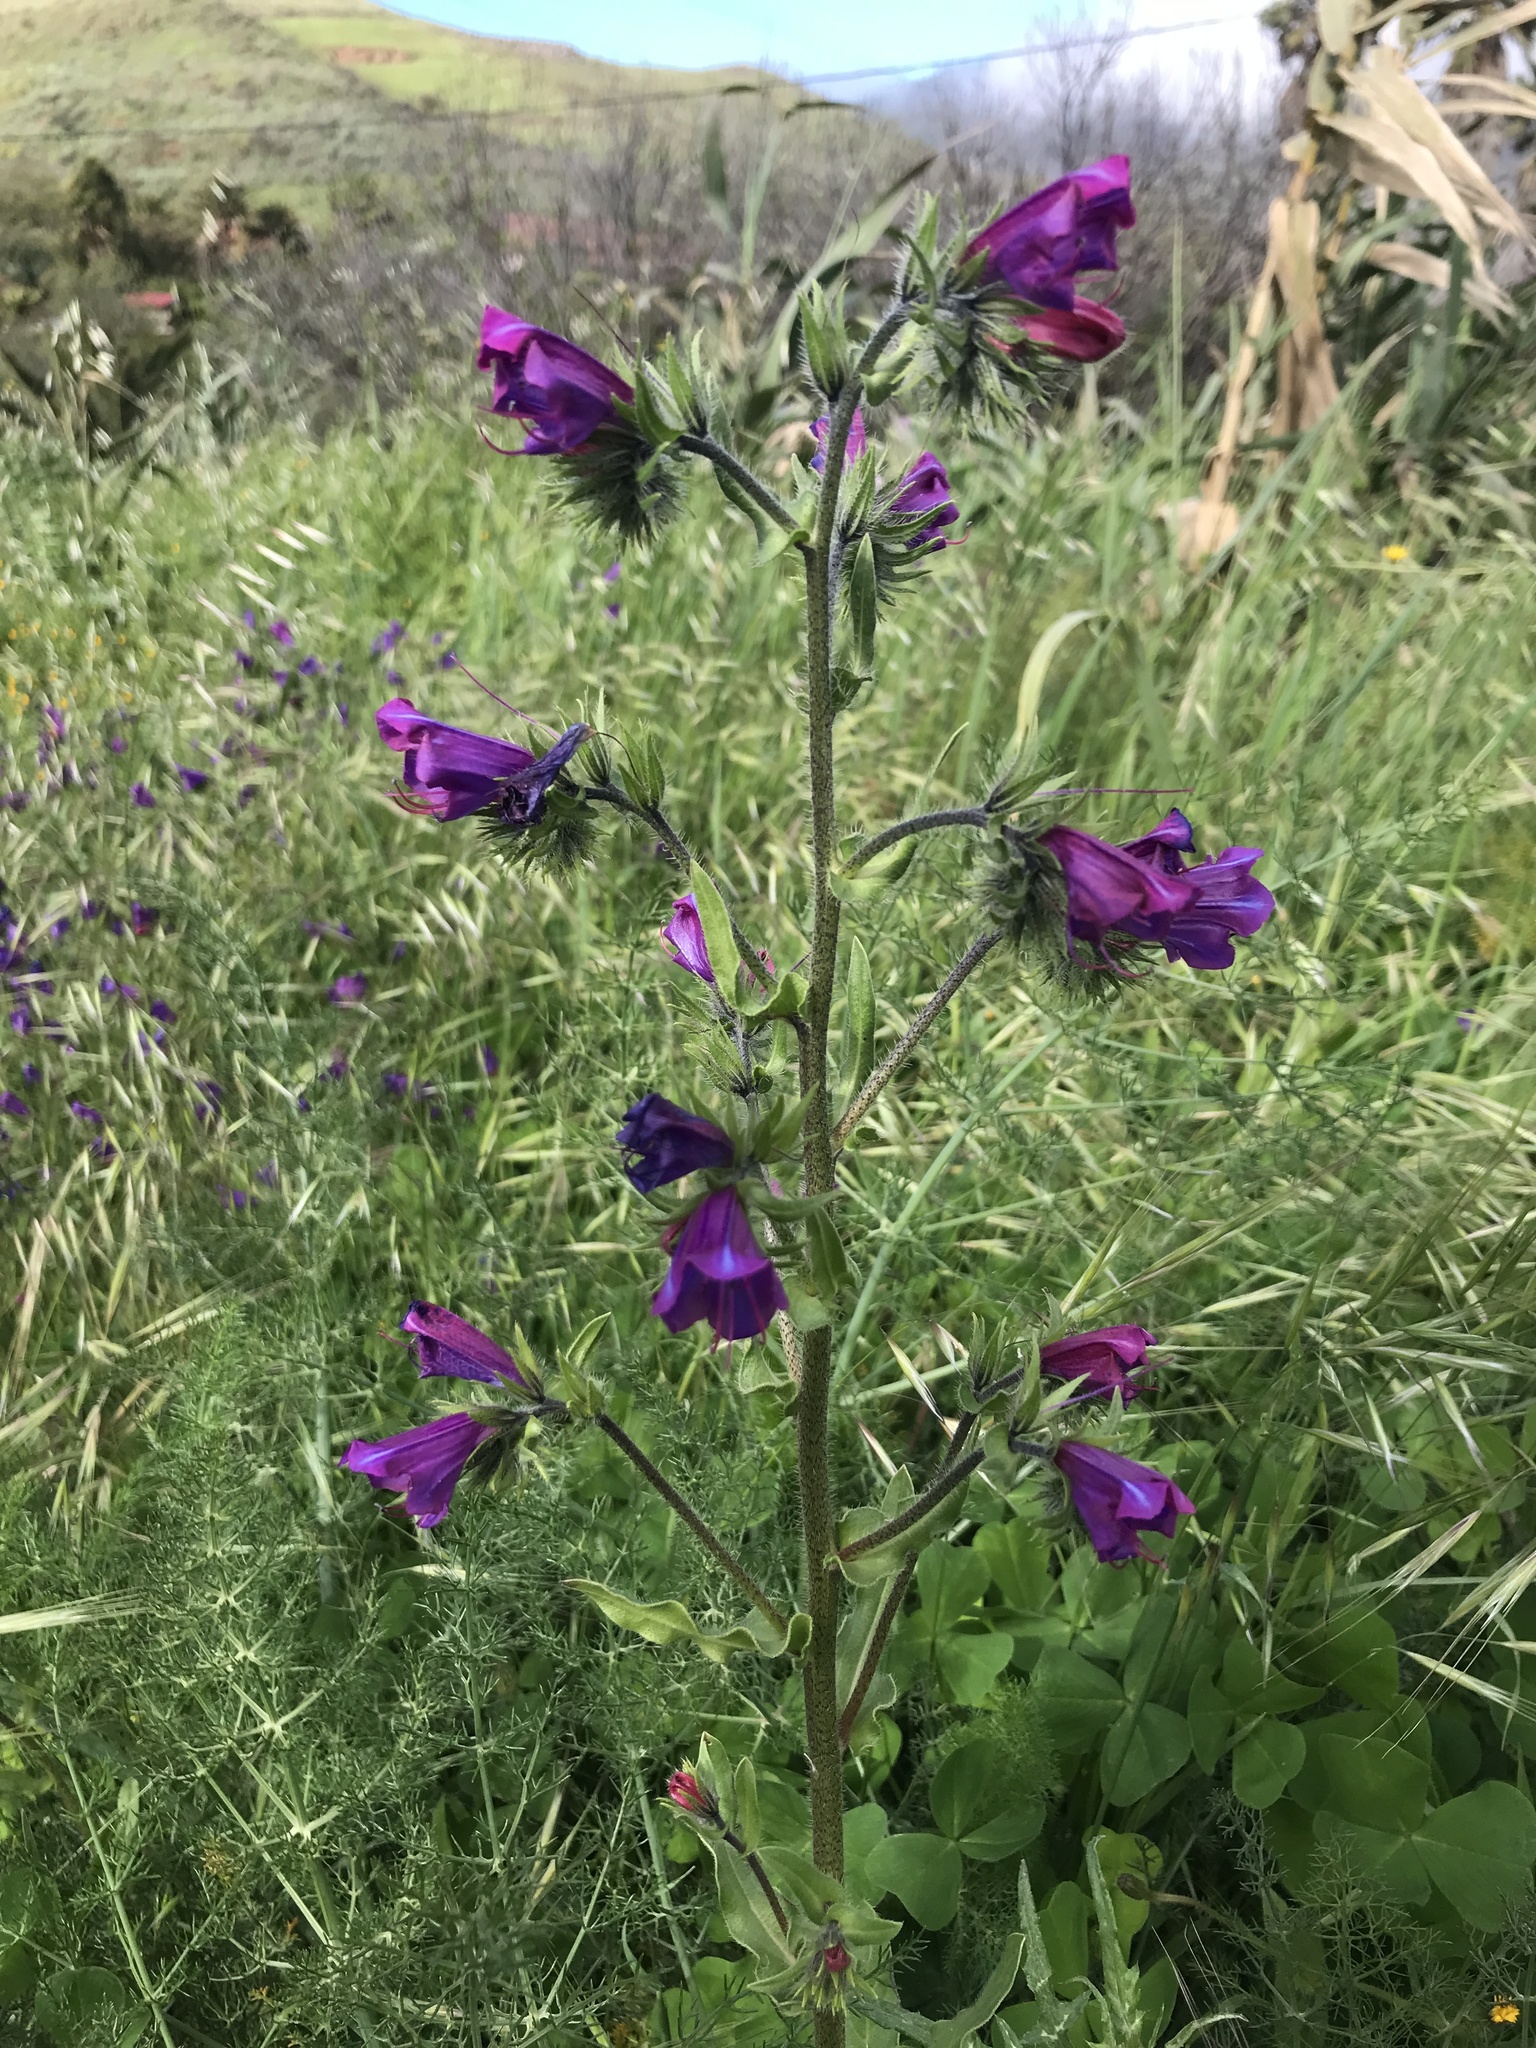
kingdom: Plantae
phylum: Tracheophyta
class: Magnoliopsida
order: Boraginales
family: Boraginaceae
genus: Echium
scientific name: Echium plantagineum
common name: Purple viper's-bugloss
